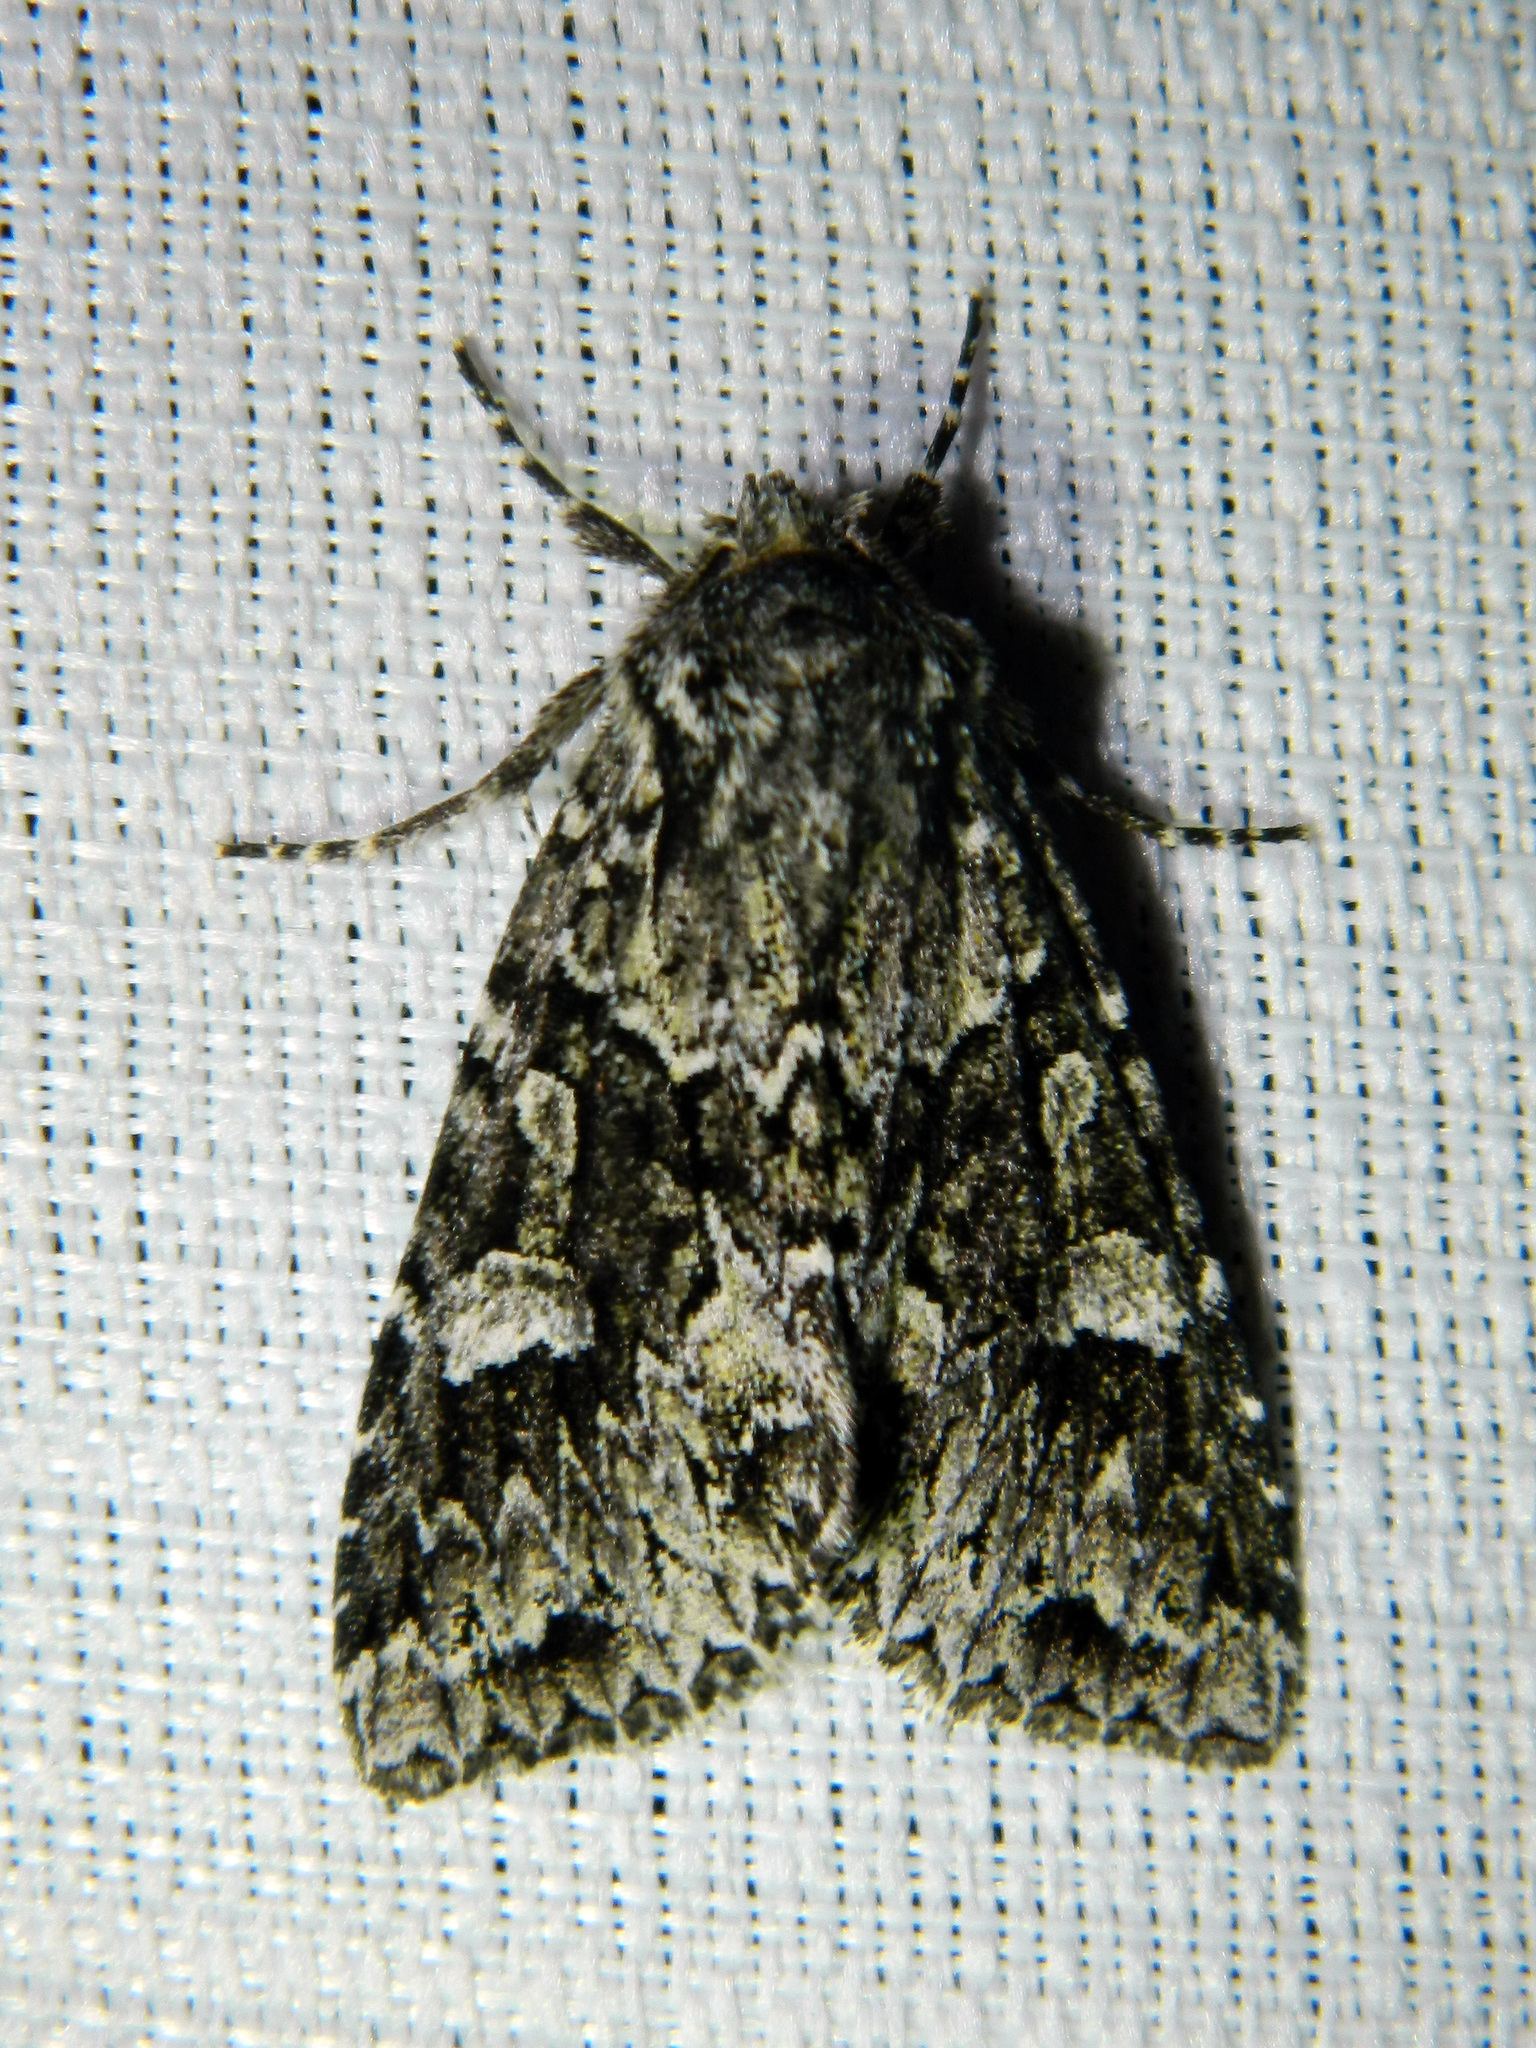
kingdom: Animalia
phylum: Arthropoda
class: Insecta
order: Lepidoptera
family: Noctuidae
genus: Platypolia
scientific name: Platypolia anceps
